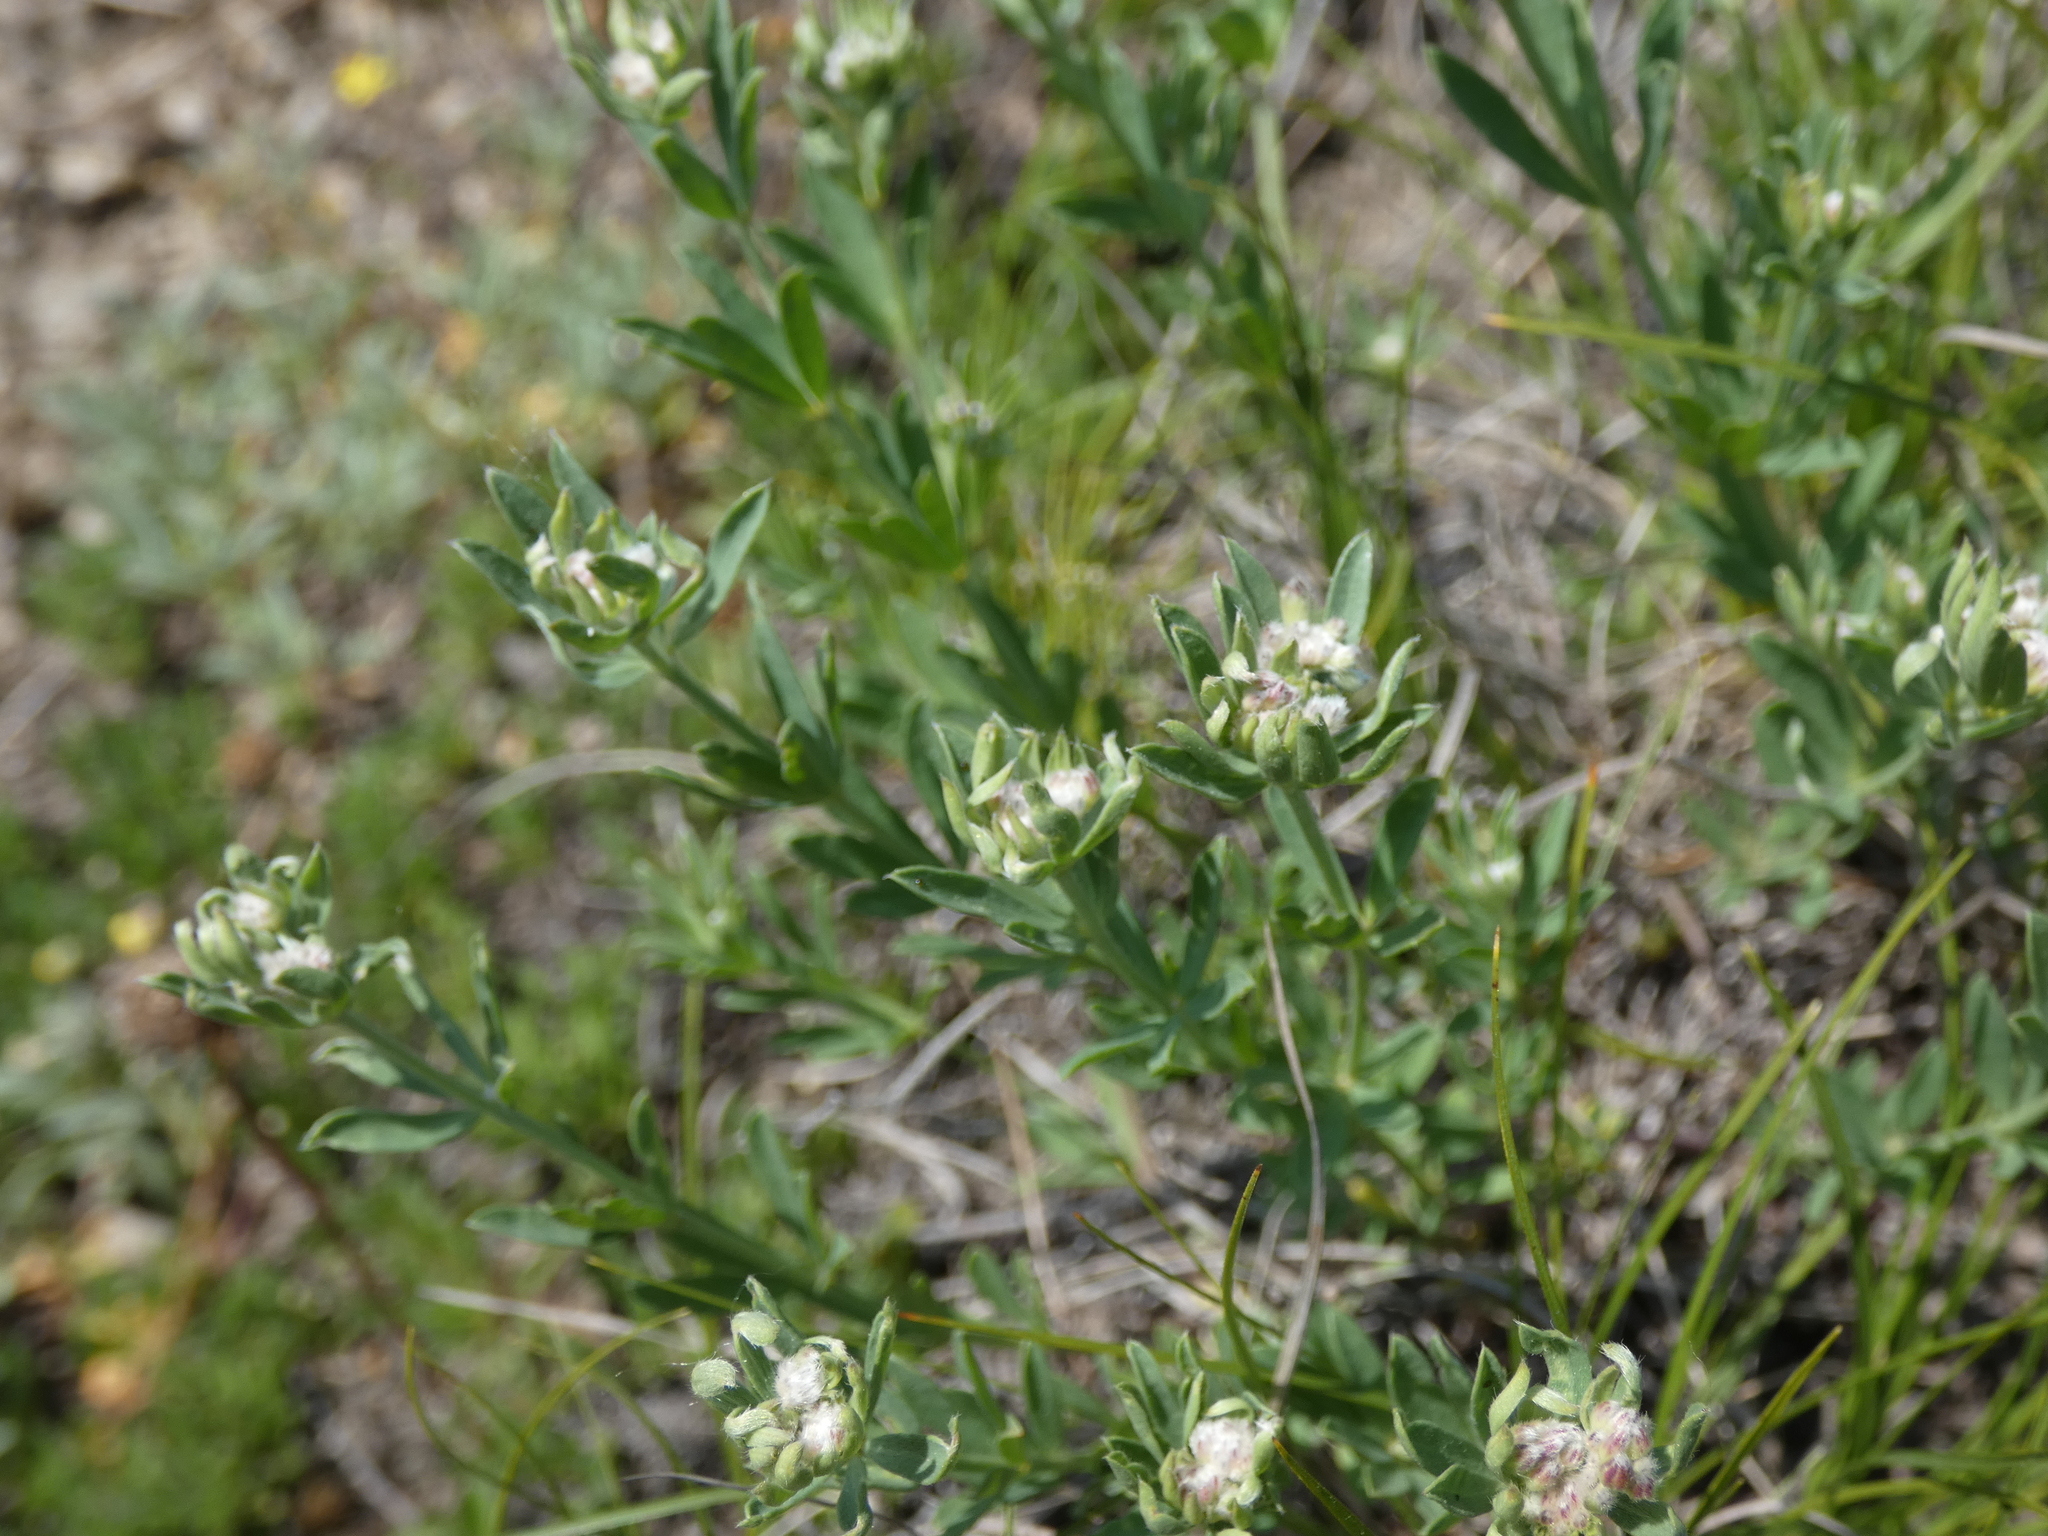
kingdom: Plantae
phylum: Tracheophyta
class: Magnoliopsida
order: Fabales
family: Fabaceae
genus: Lotus
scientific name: Lotus germanicus
